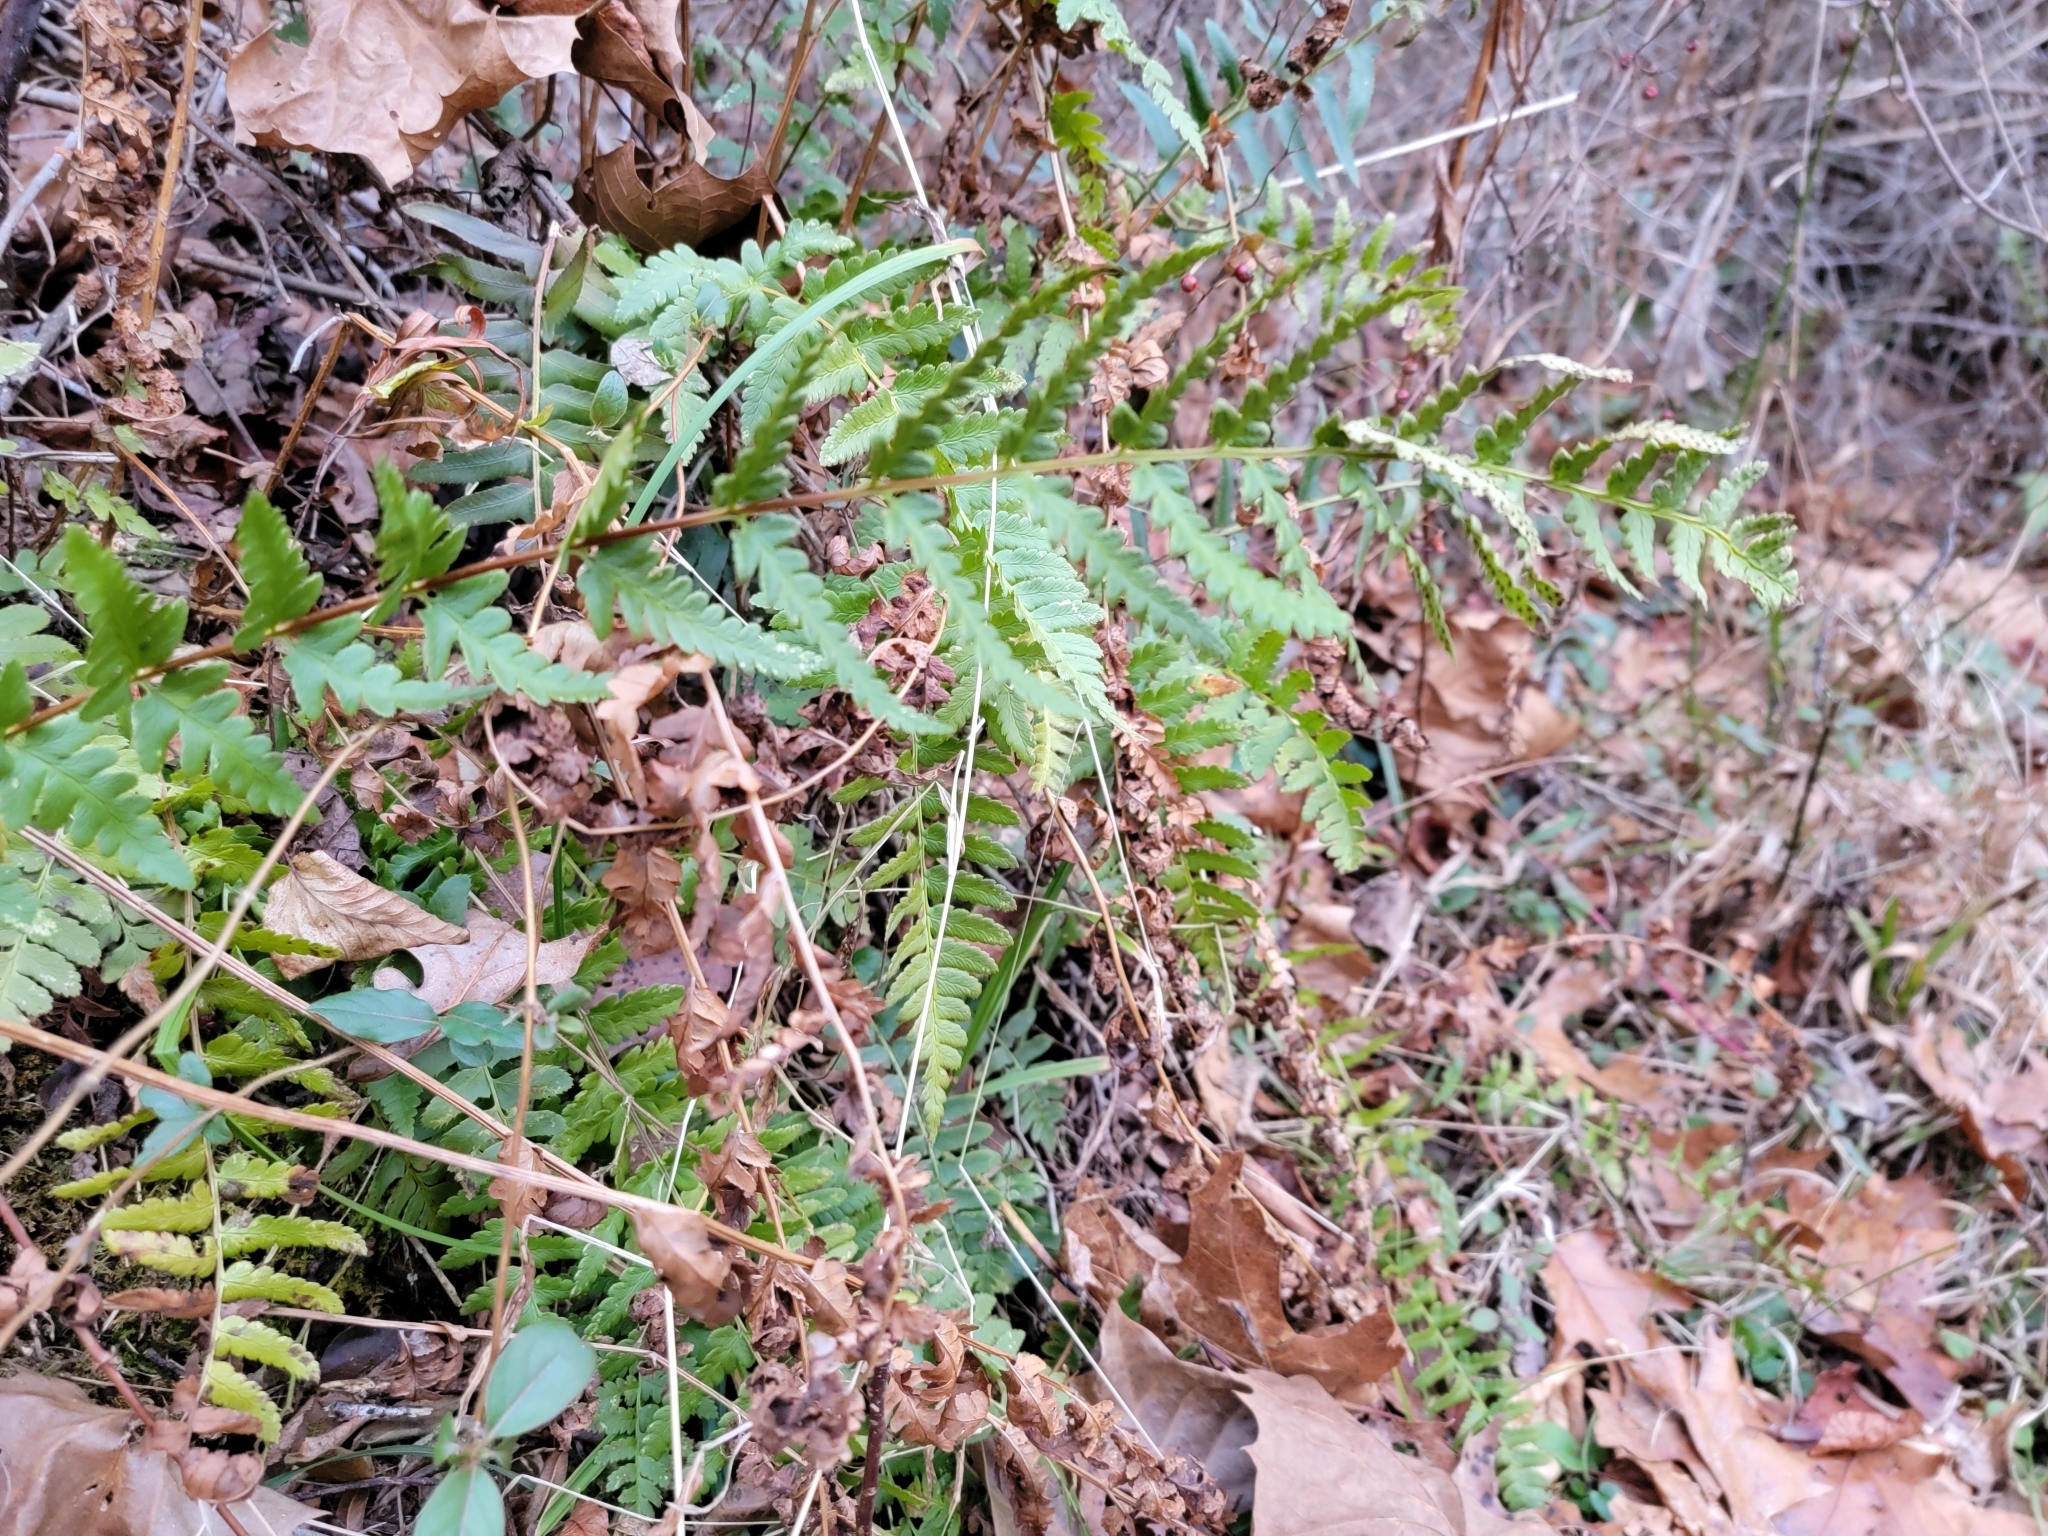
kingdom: Plantae
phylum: Tracheophyta
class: Polypodiopsida
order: Polypodiales
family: Dryopteridaceae
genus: Dryopteris
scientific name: Dryopteris cristata
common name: Crested wood fern
